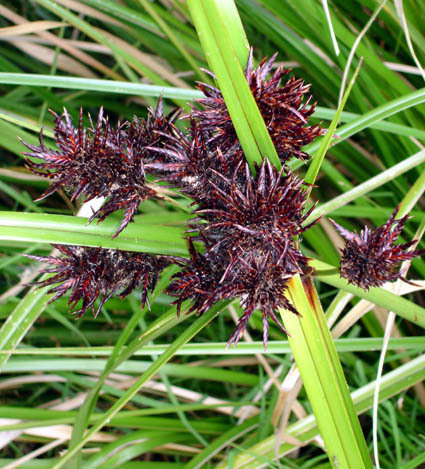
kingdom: Fungi
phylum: Basidiomycota
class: Microbotryomycetes
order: Microbotryales
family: Microbotryaceae
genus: Bauerago
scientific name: Bauerago gardneri
